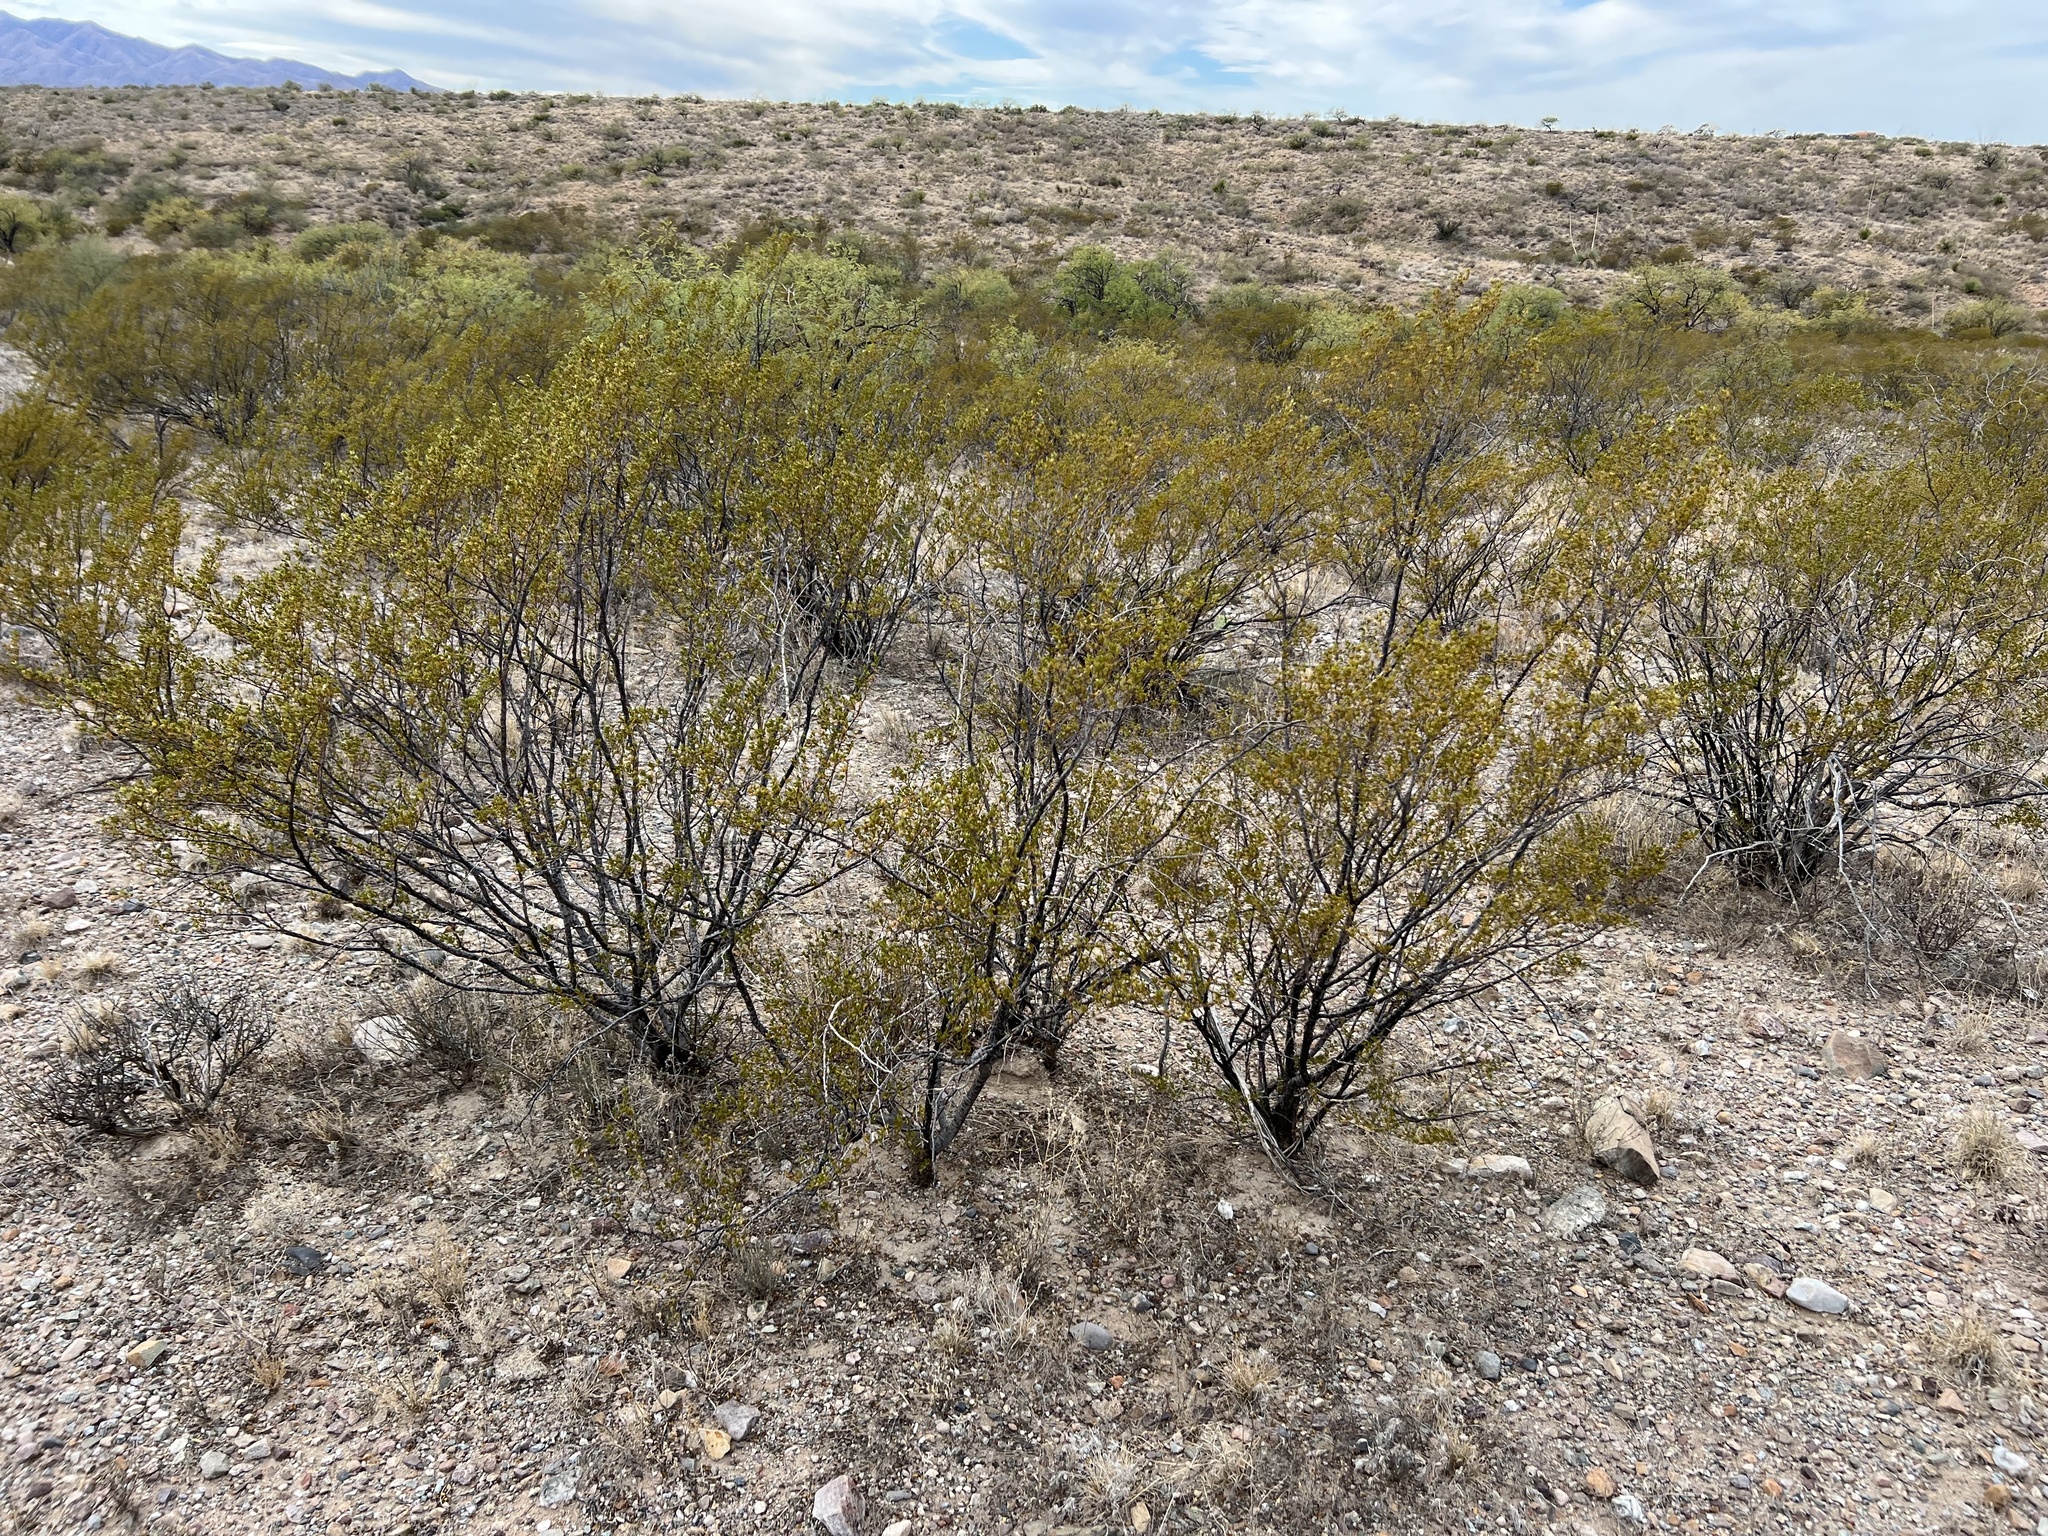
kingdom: Plantae
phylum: Tracheophyta
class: Magnoliopsida
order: Zygophyllales
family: Zygophyllaceae
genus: Larrea
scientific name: Larrea tridentata
